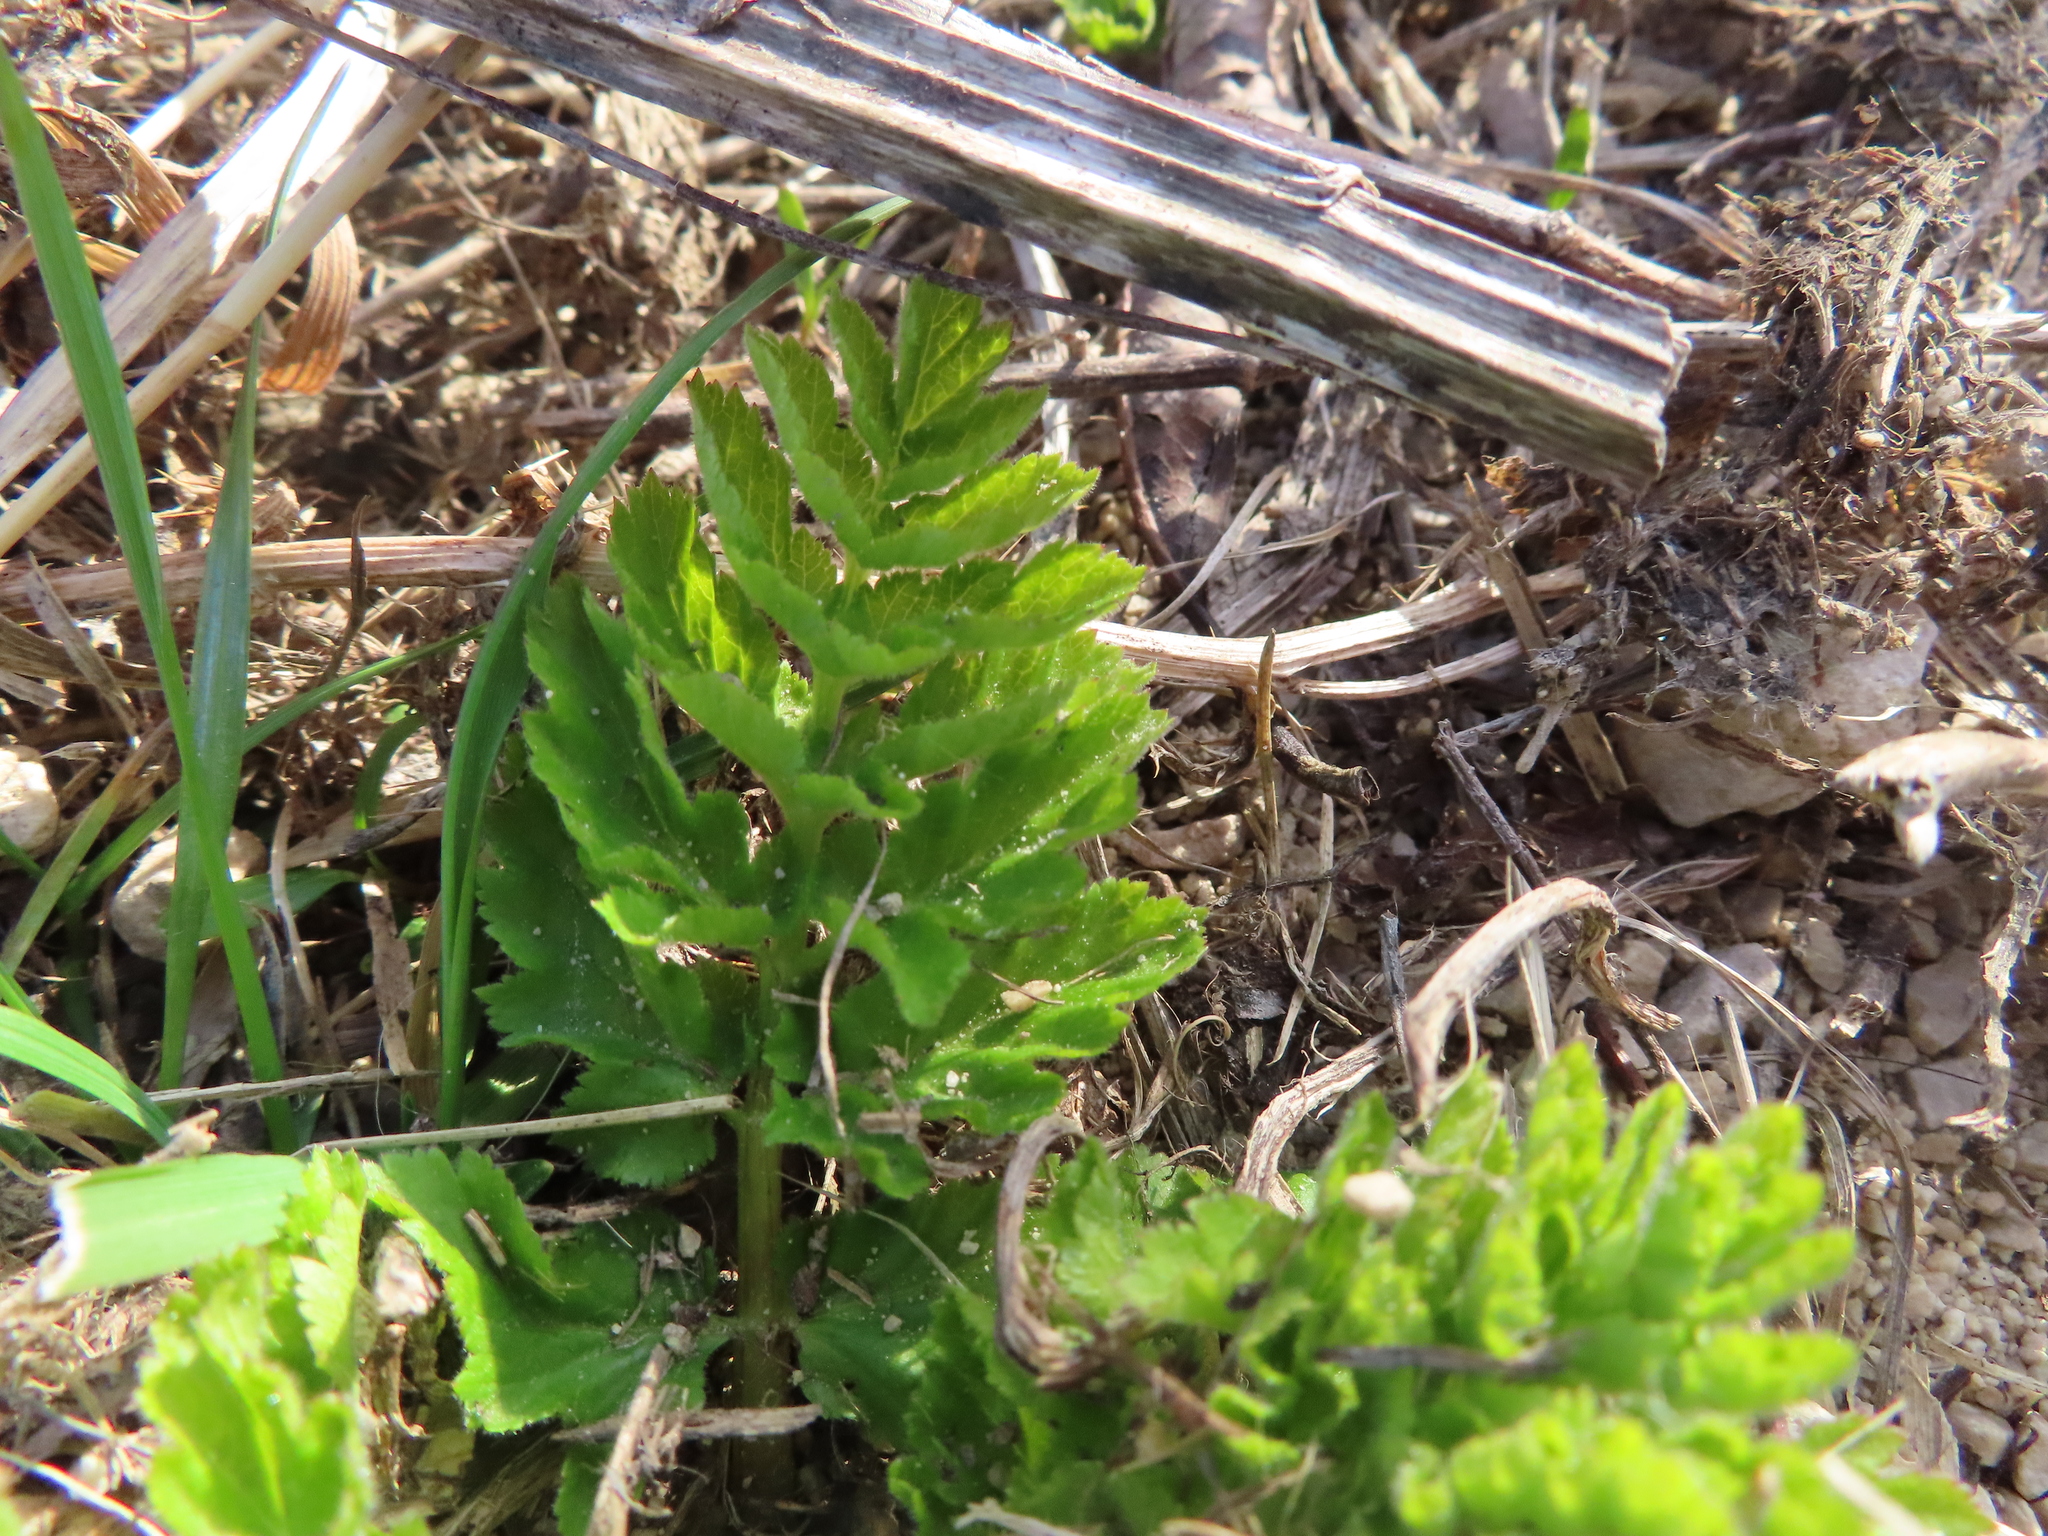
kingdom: Plantae
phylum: Tracheophyta
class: Magnoliopsida
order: Apiales
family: Apiaceae
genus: Pastinaca
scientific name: Pastinaca sativa
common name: Wild parsnip
